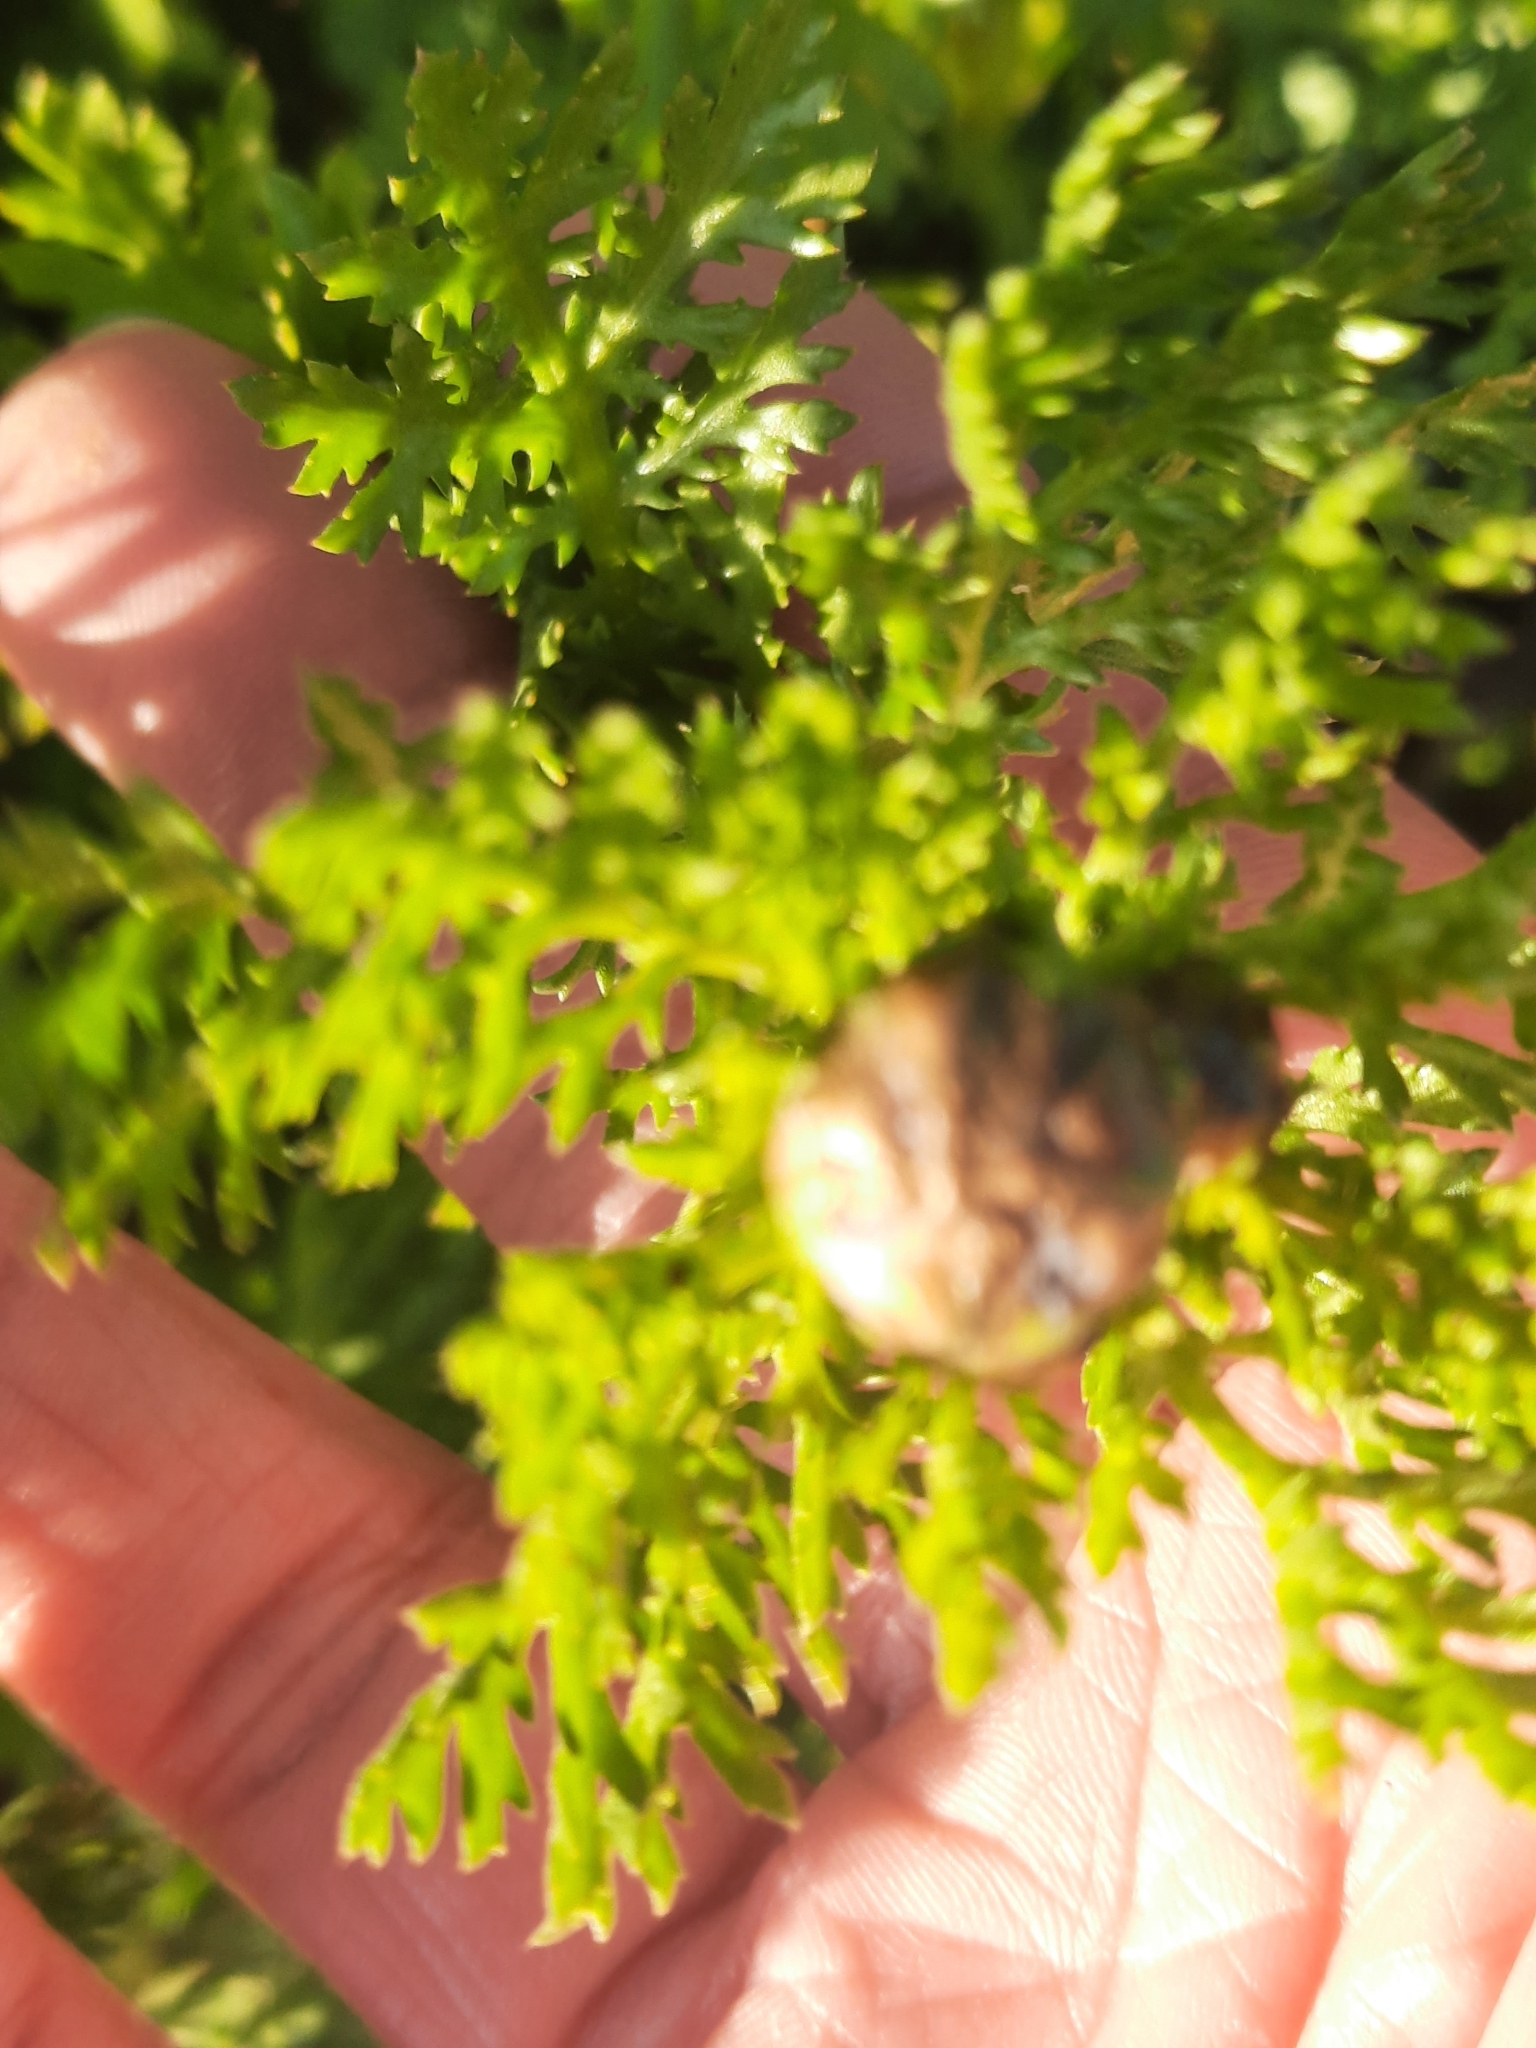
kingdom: Plantae
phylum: Tracheophyta
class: Magnoliopsida
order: Asterales
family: Asteraceae
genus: Glebionis
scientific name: Glebionis coronaria
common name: Crowndaisy
